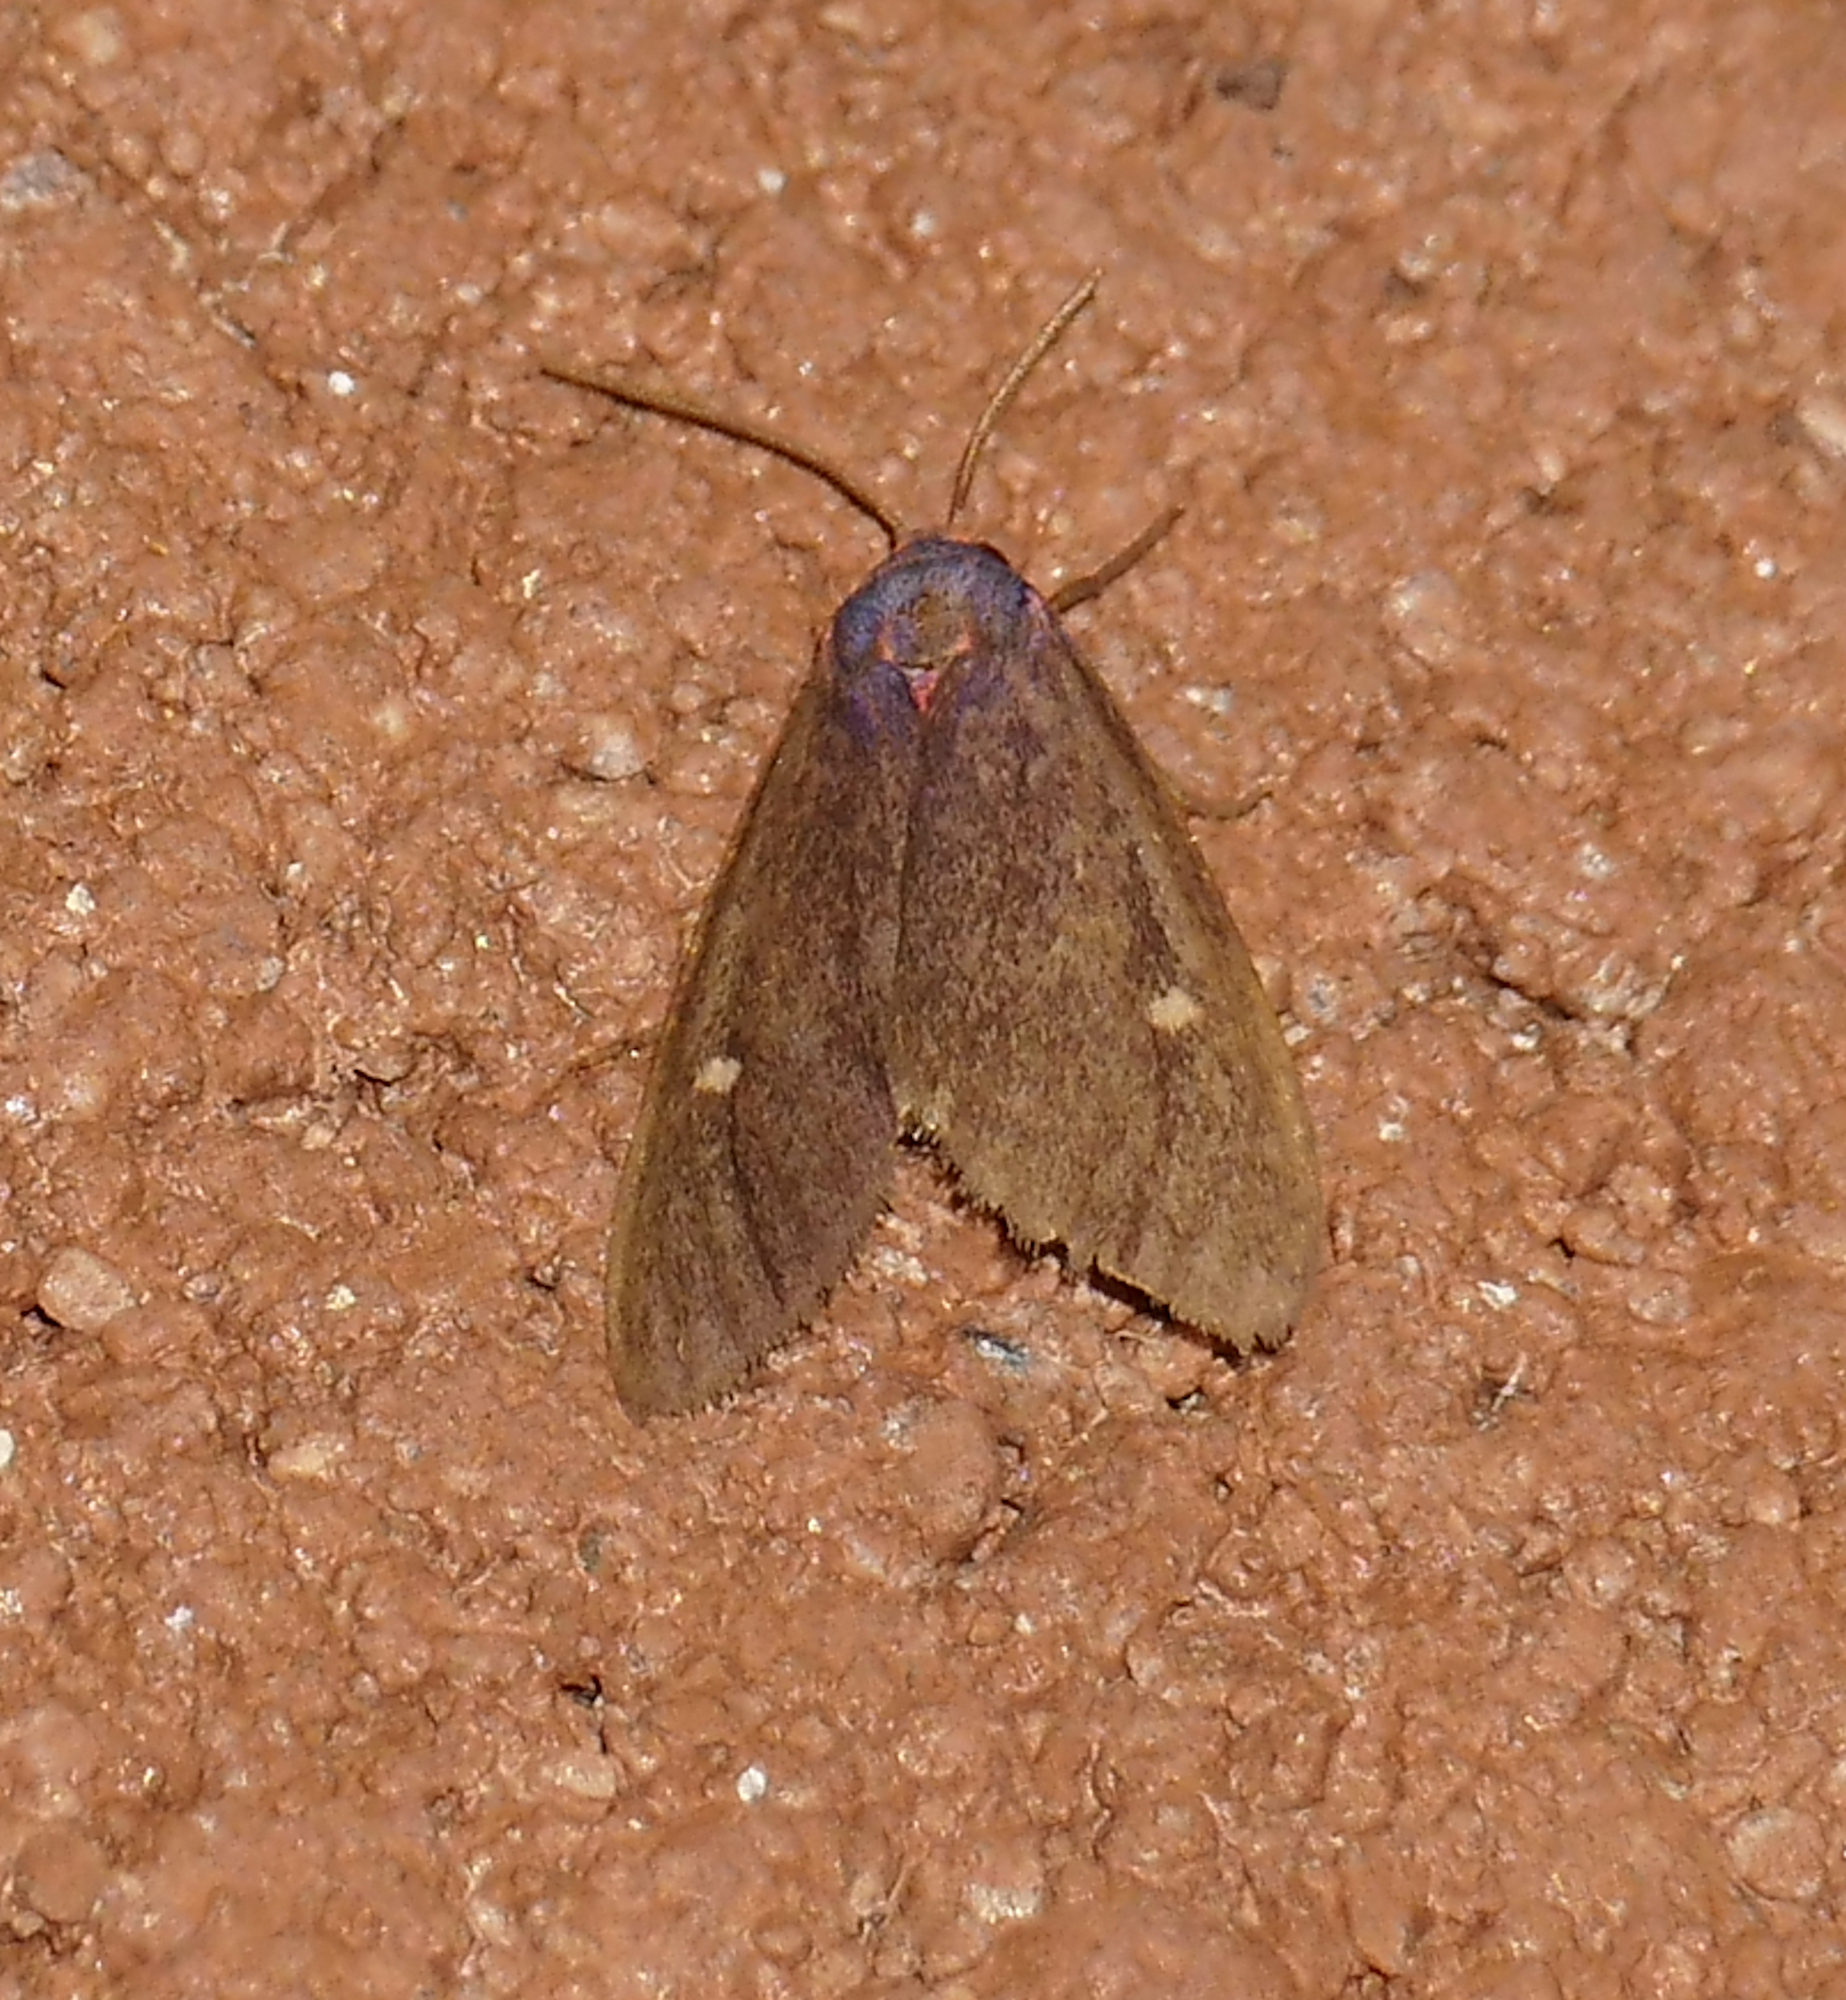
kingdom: Animalia
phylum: Arthropoda
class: Insecta
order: Lepidoptera
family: Erebidae
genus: Euchaetes
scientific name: Euchaetes zella
